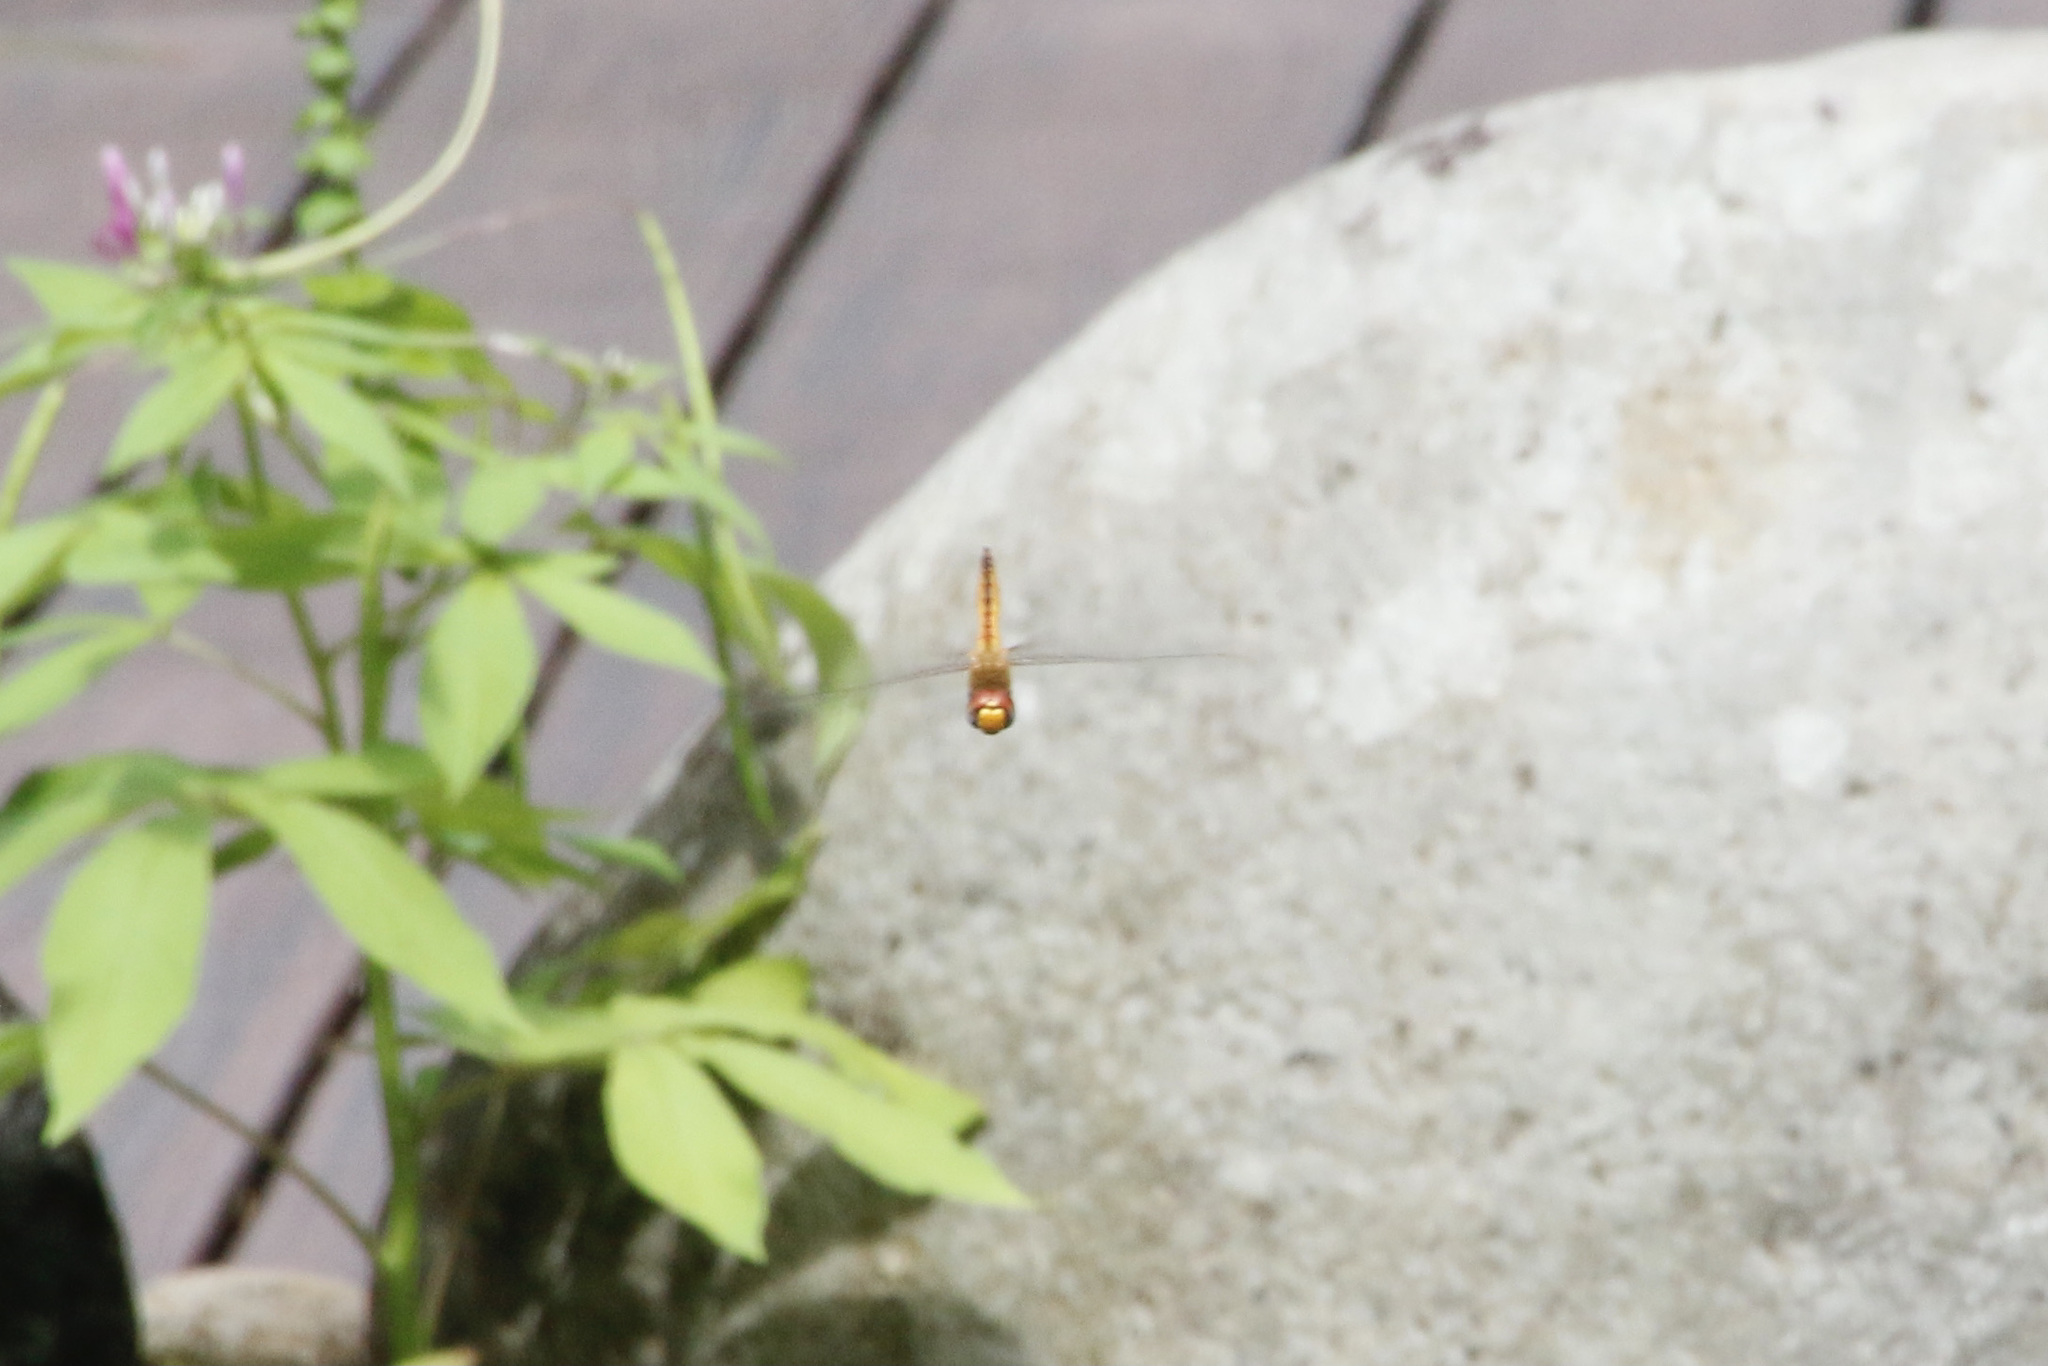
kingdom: Animalia
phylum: Arthropoda
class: Insecta
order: Odonata
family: Libellulidae
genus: Pantala
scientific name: Pantala flavescens
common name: Wandering glider
